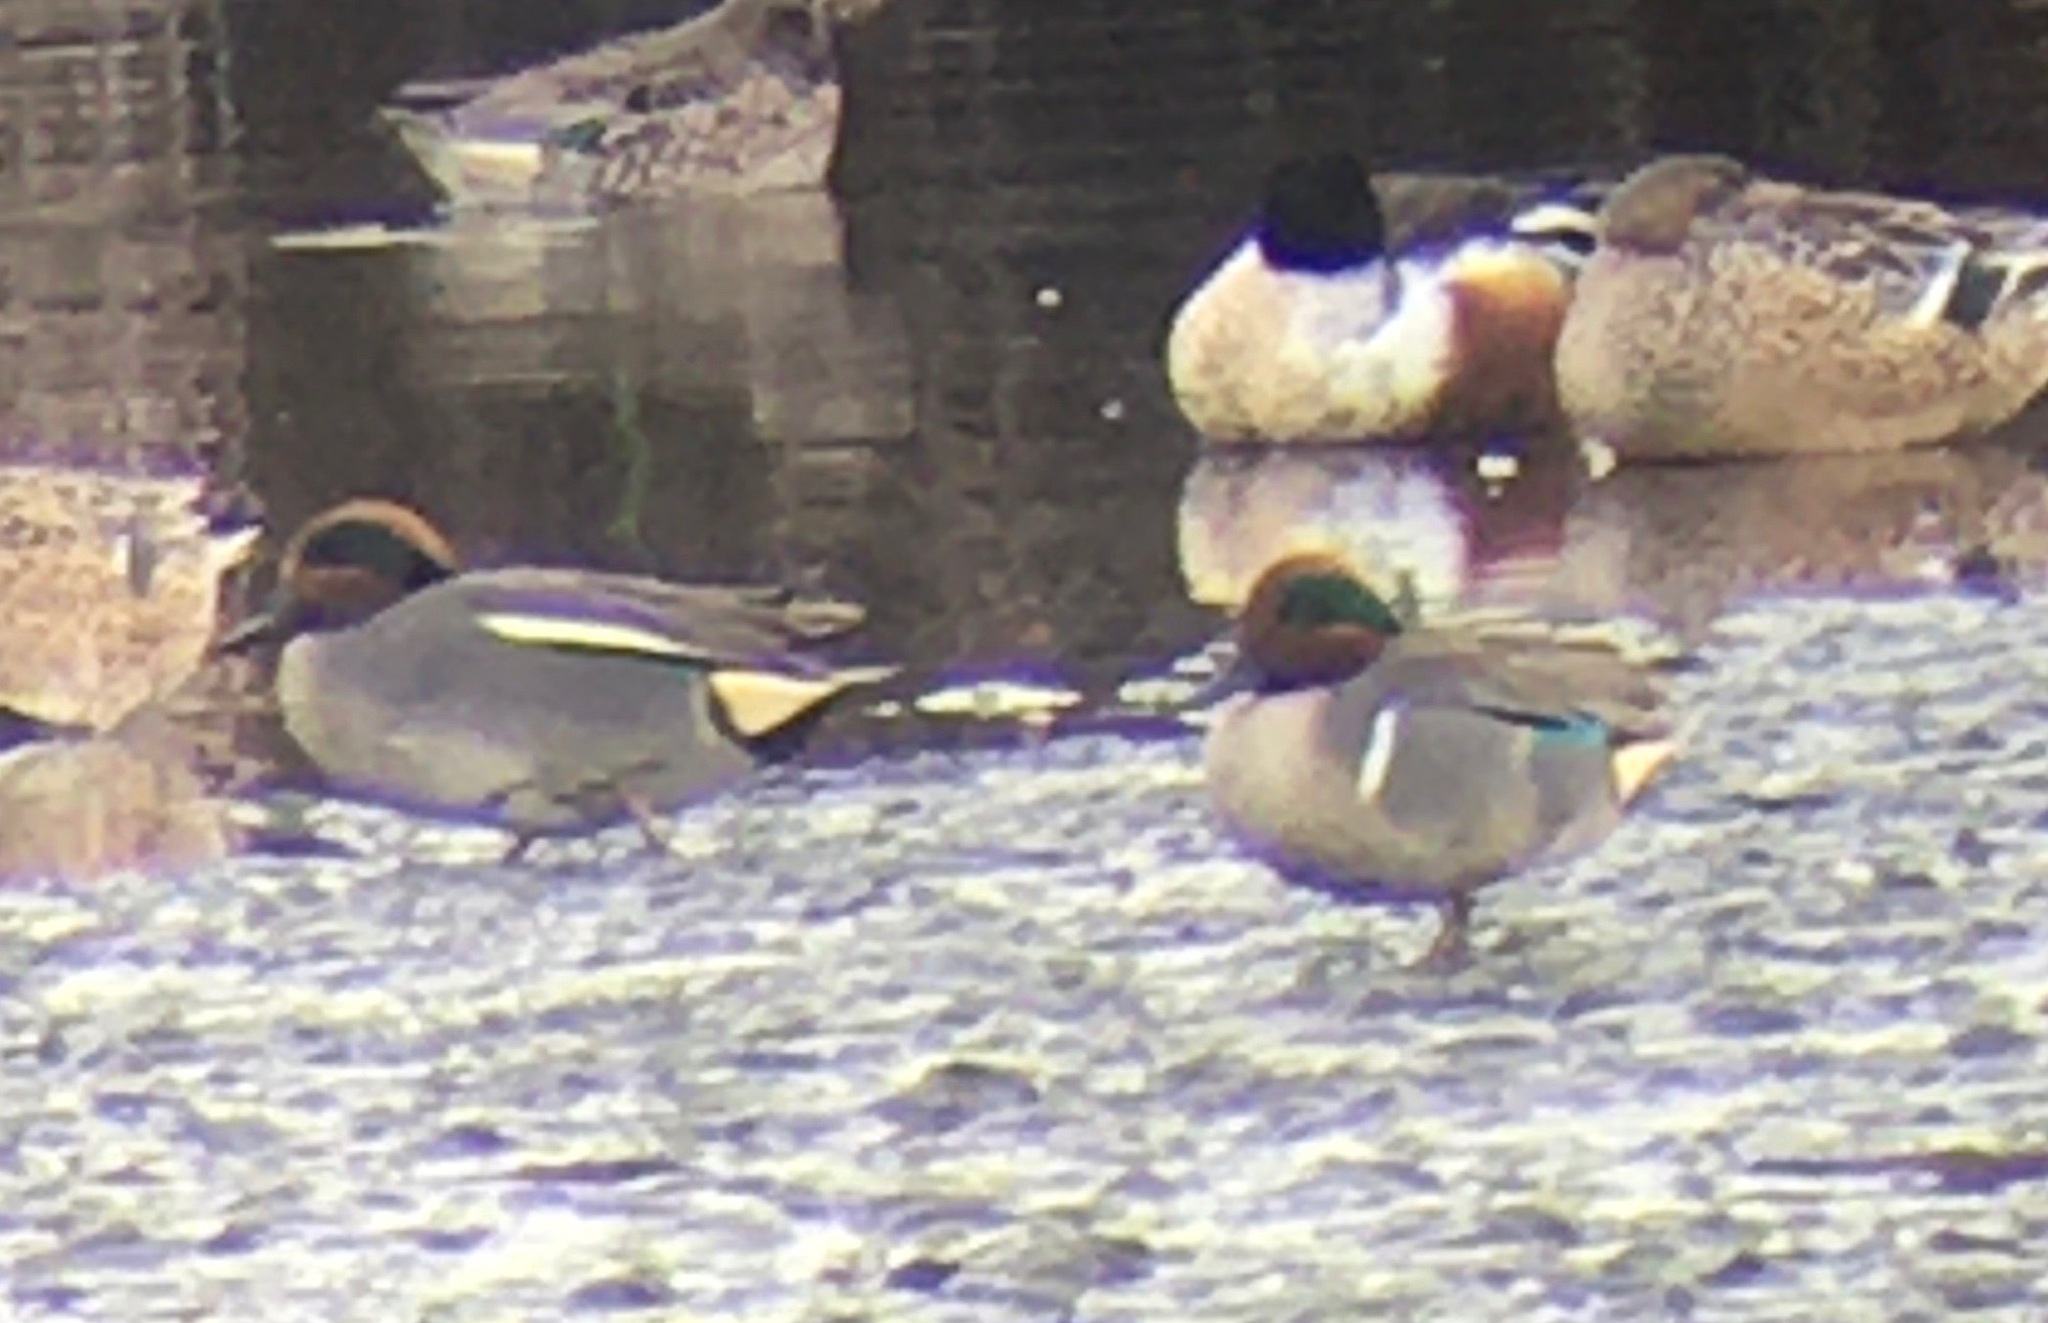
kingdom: Animalia
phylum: Chordata
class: Aves
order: Anseriformes
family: Anatidae
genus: Anas
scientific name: Anas carolinensis
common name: Green-winged teal
